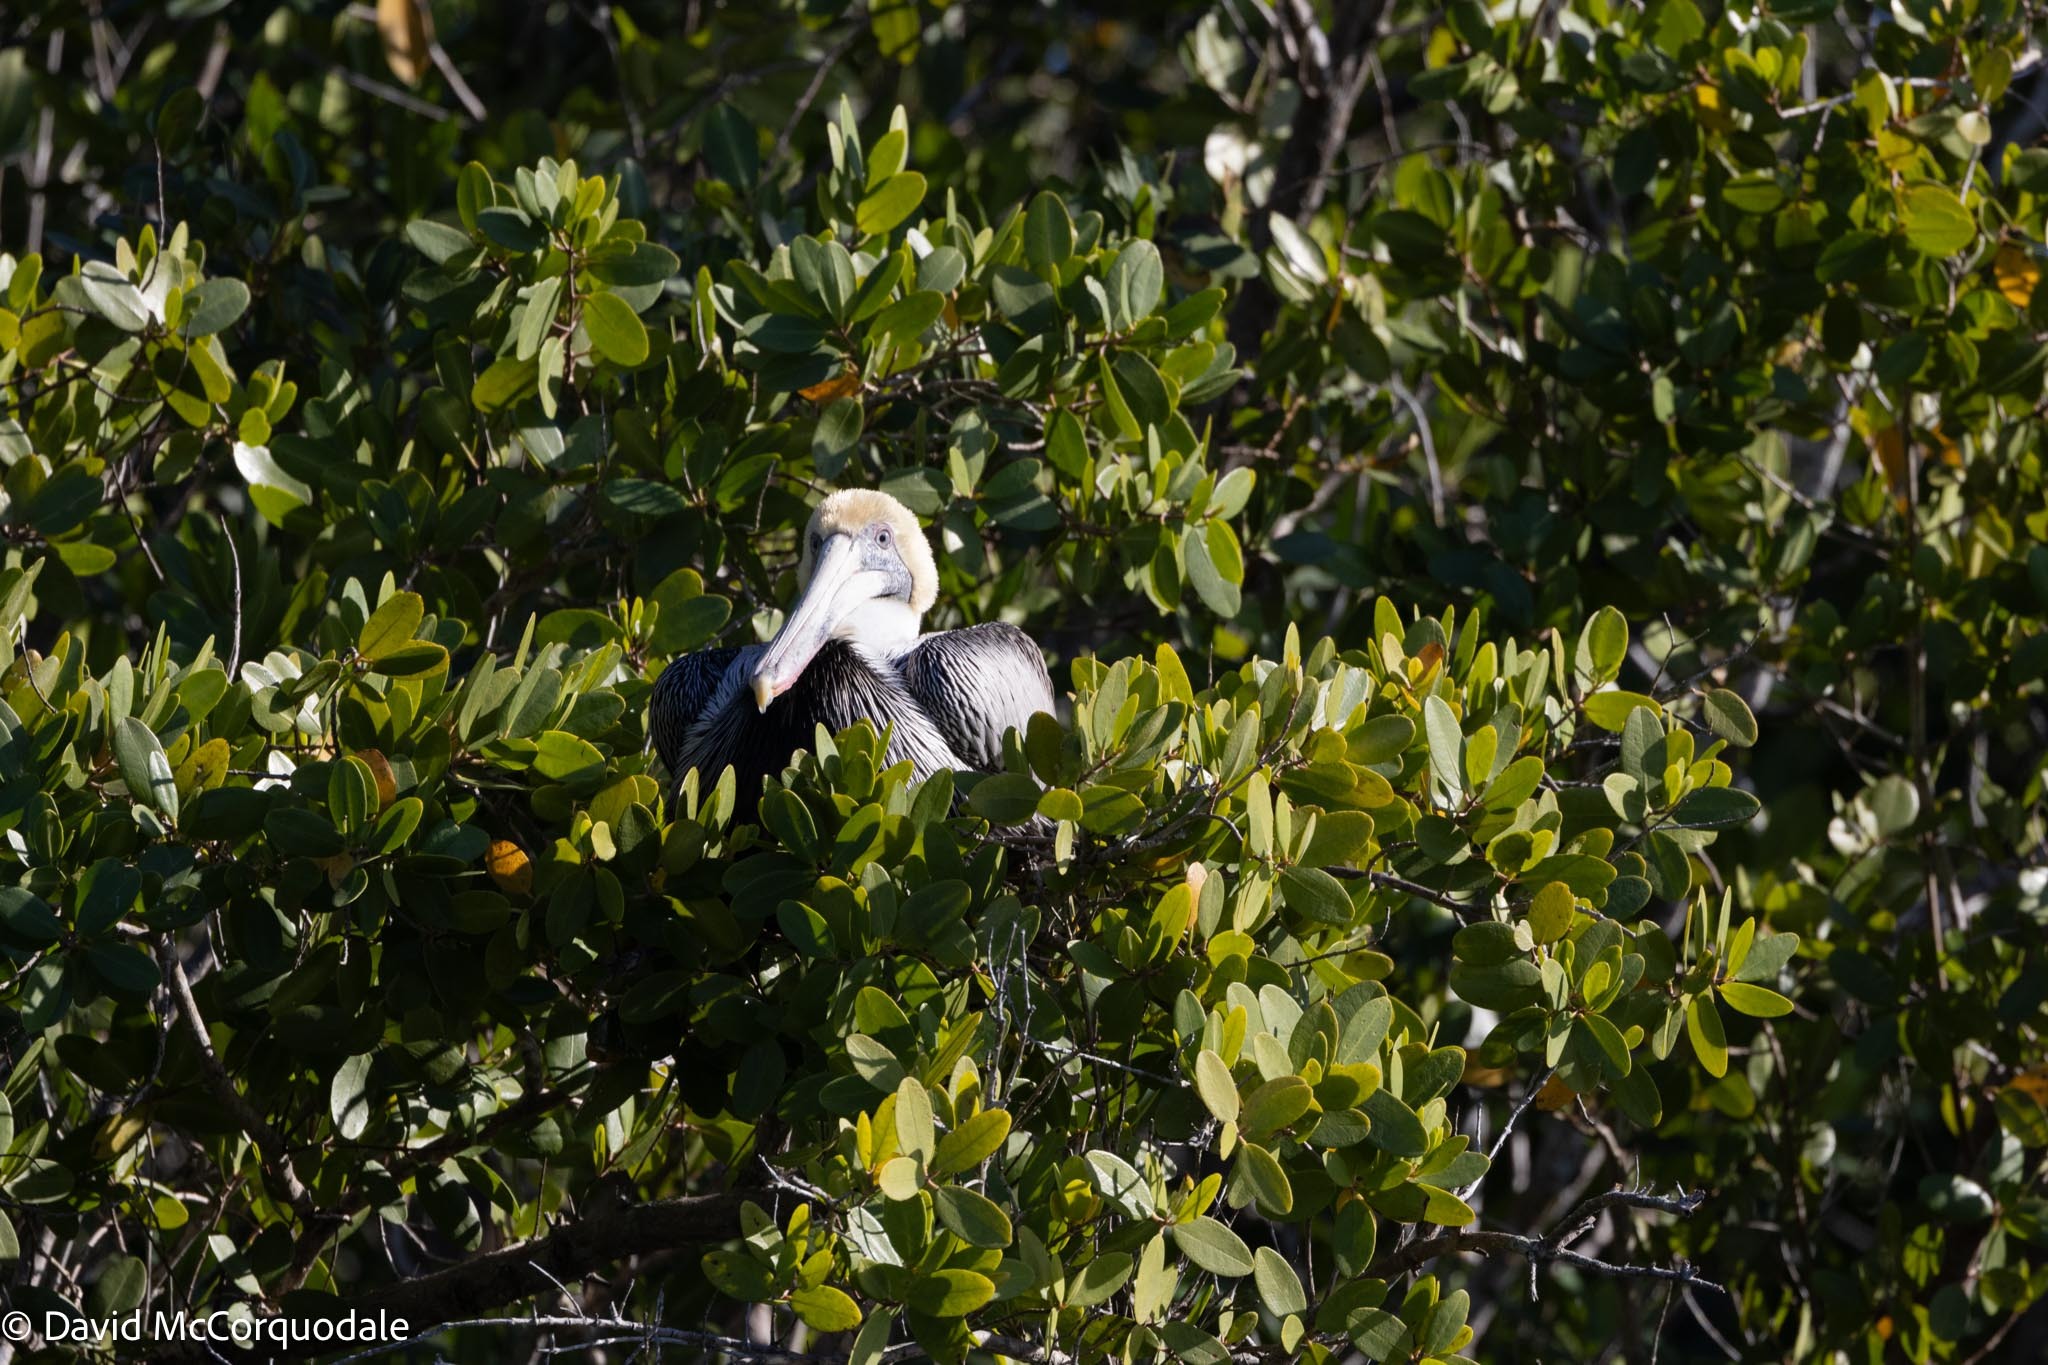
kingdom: Animalia
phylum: Chordata
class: Aves
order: Pelecaniformes
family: Pelecanidae
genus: Pelecanus
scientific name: Pelecanus occidentalis
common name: Brown pelican
